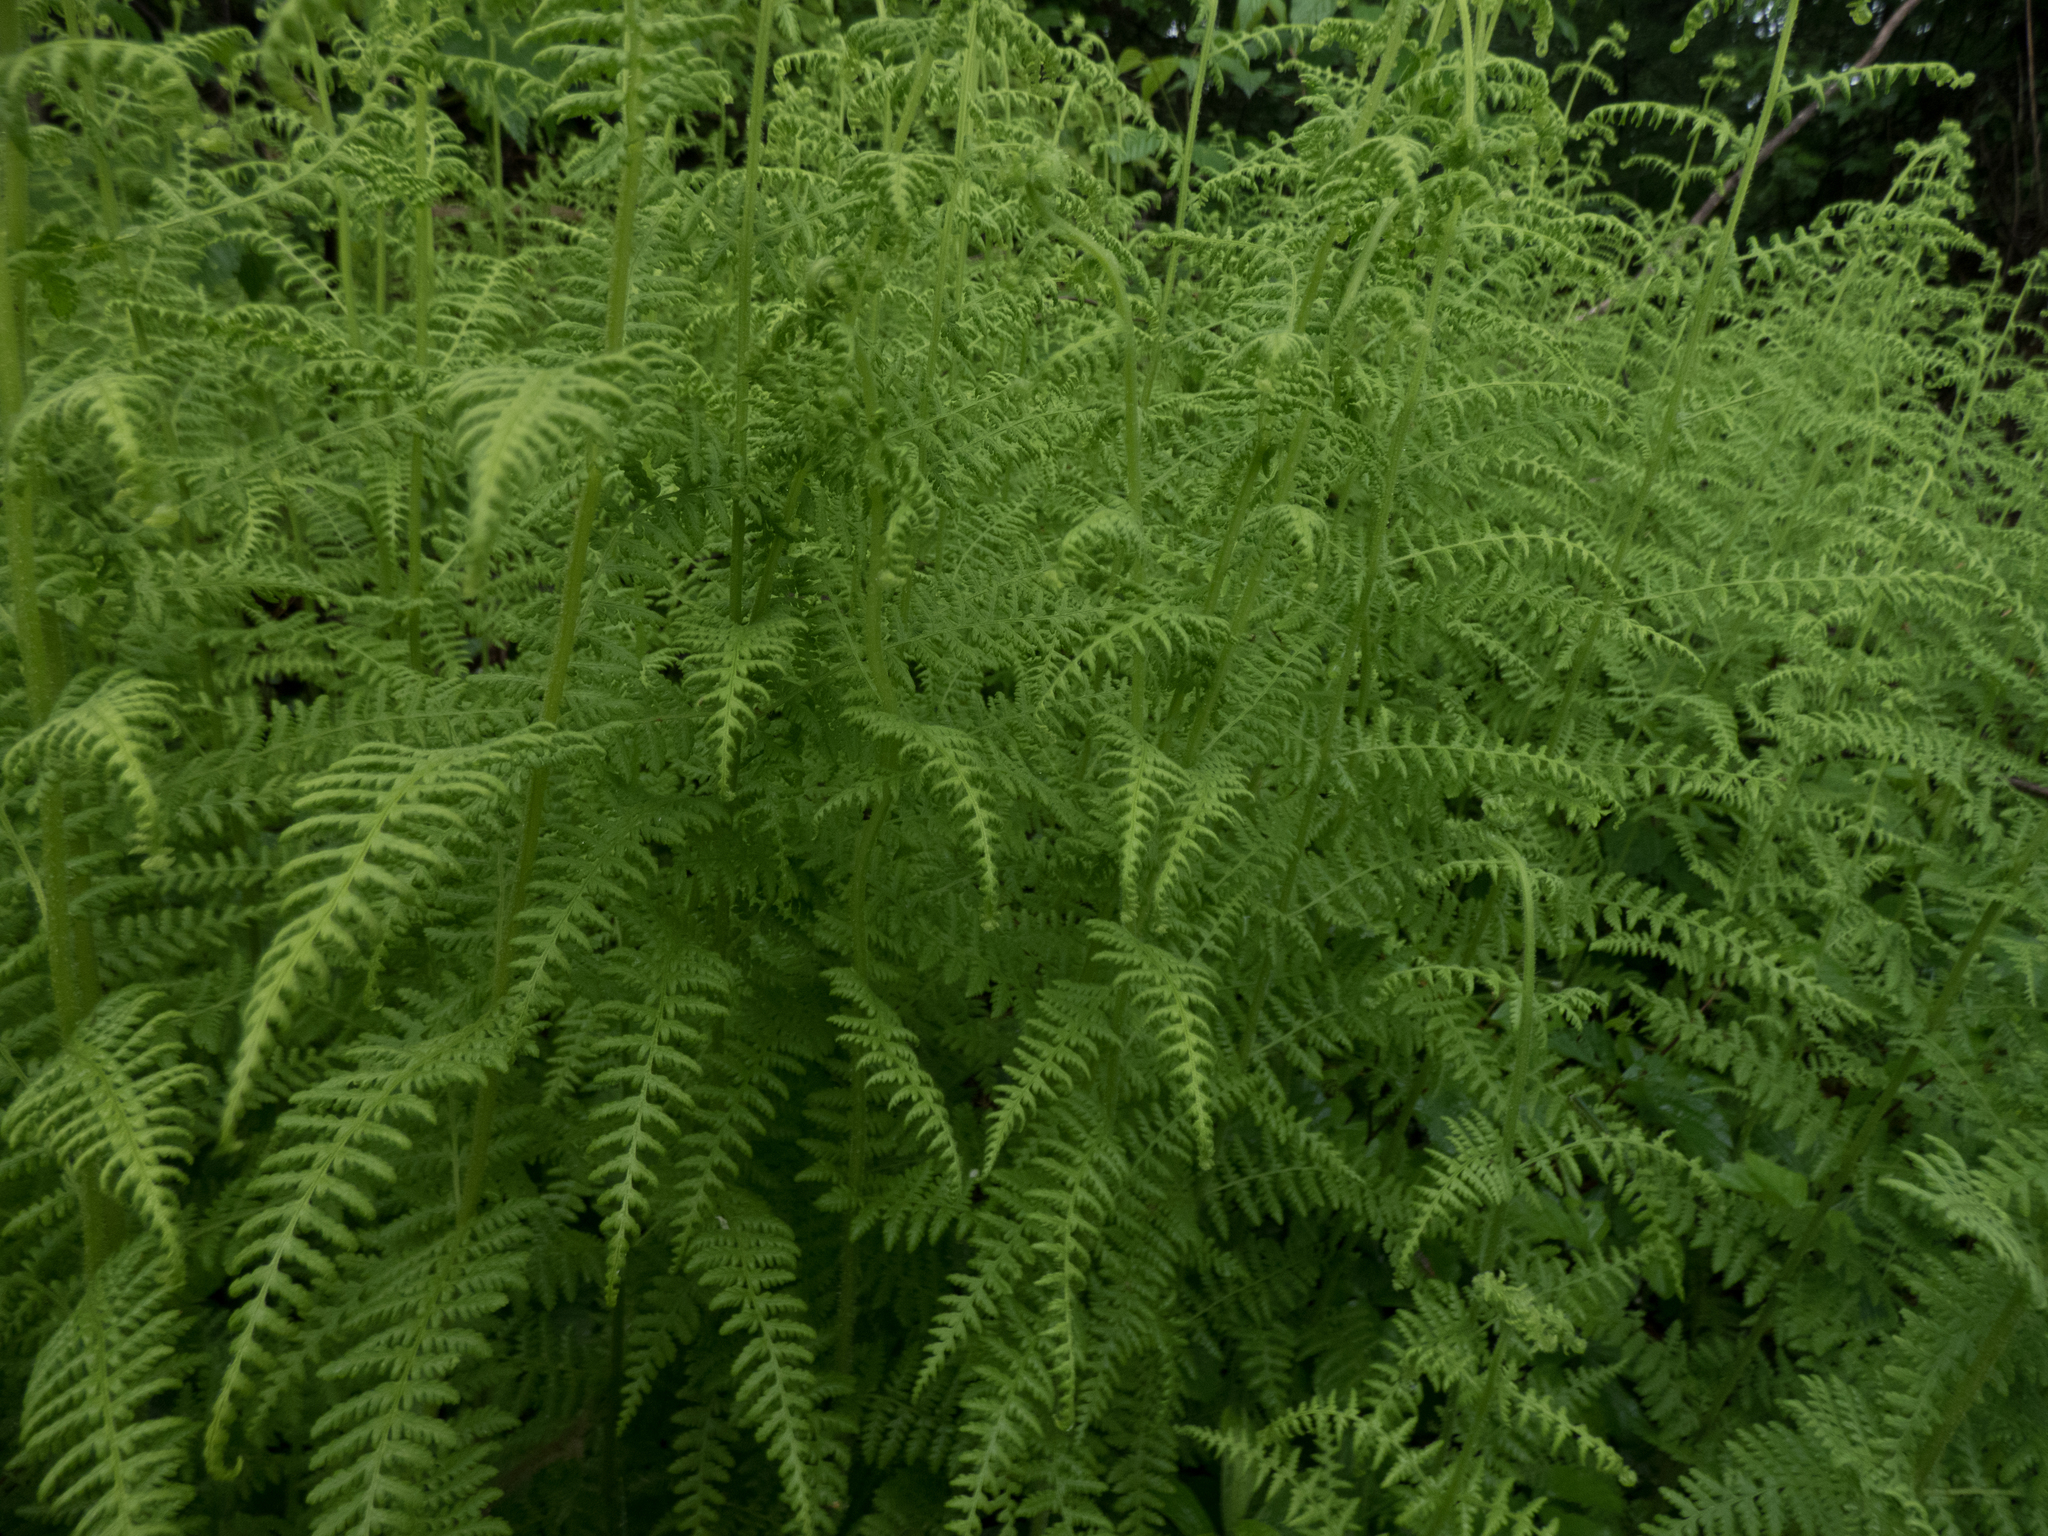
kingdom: Plantae
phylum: Tracheophyta
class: Polypodiopsida
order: Polypodiales
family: Dennstaedtiaceae
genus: Sitobolium
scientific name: Sitobolium punctilobum
